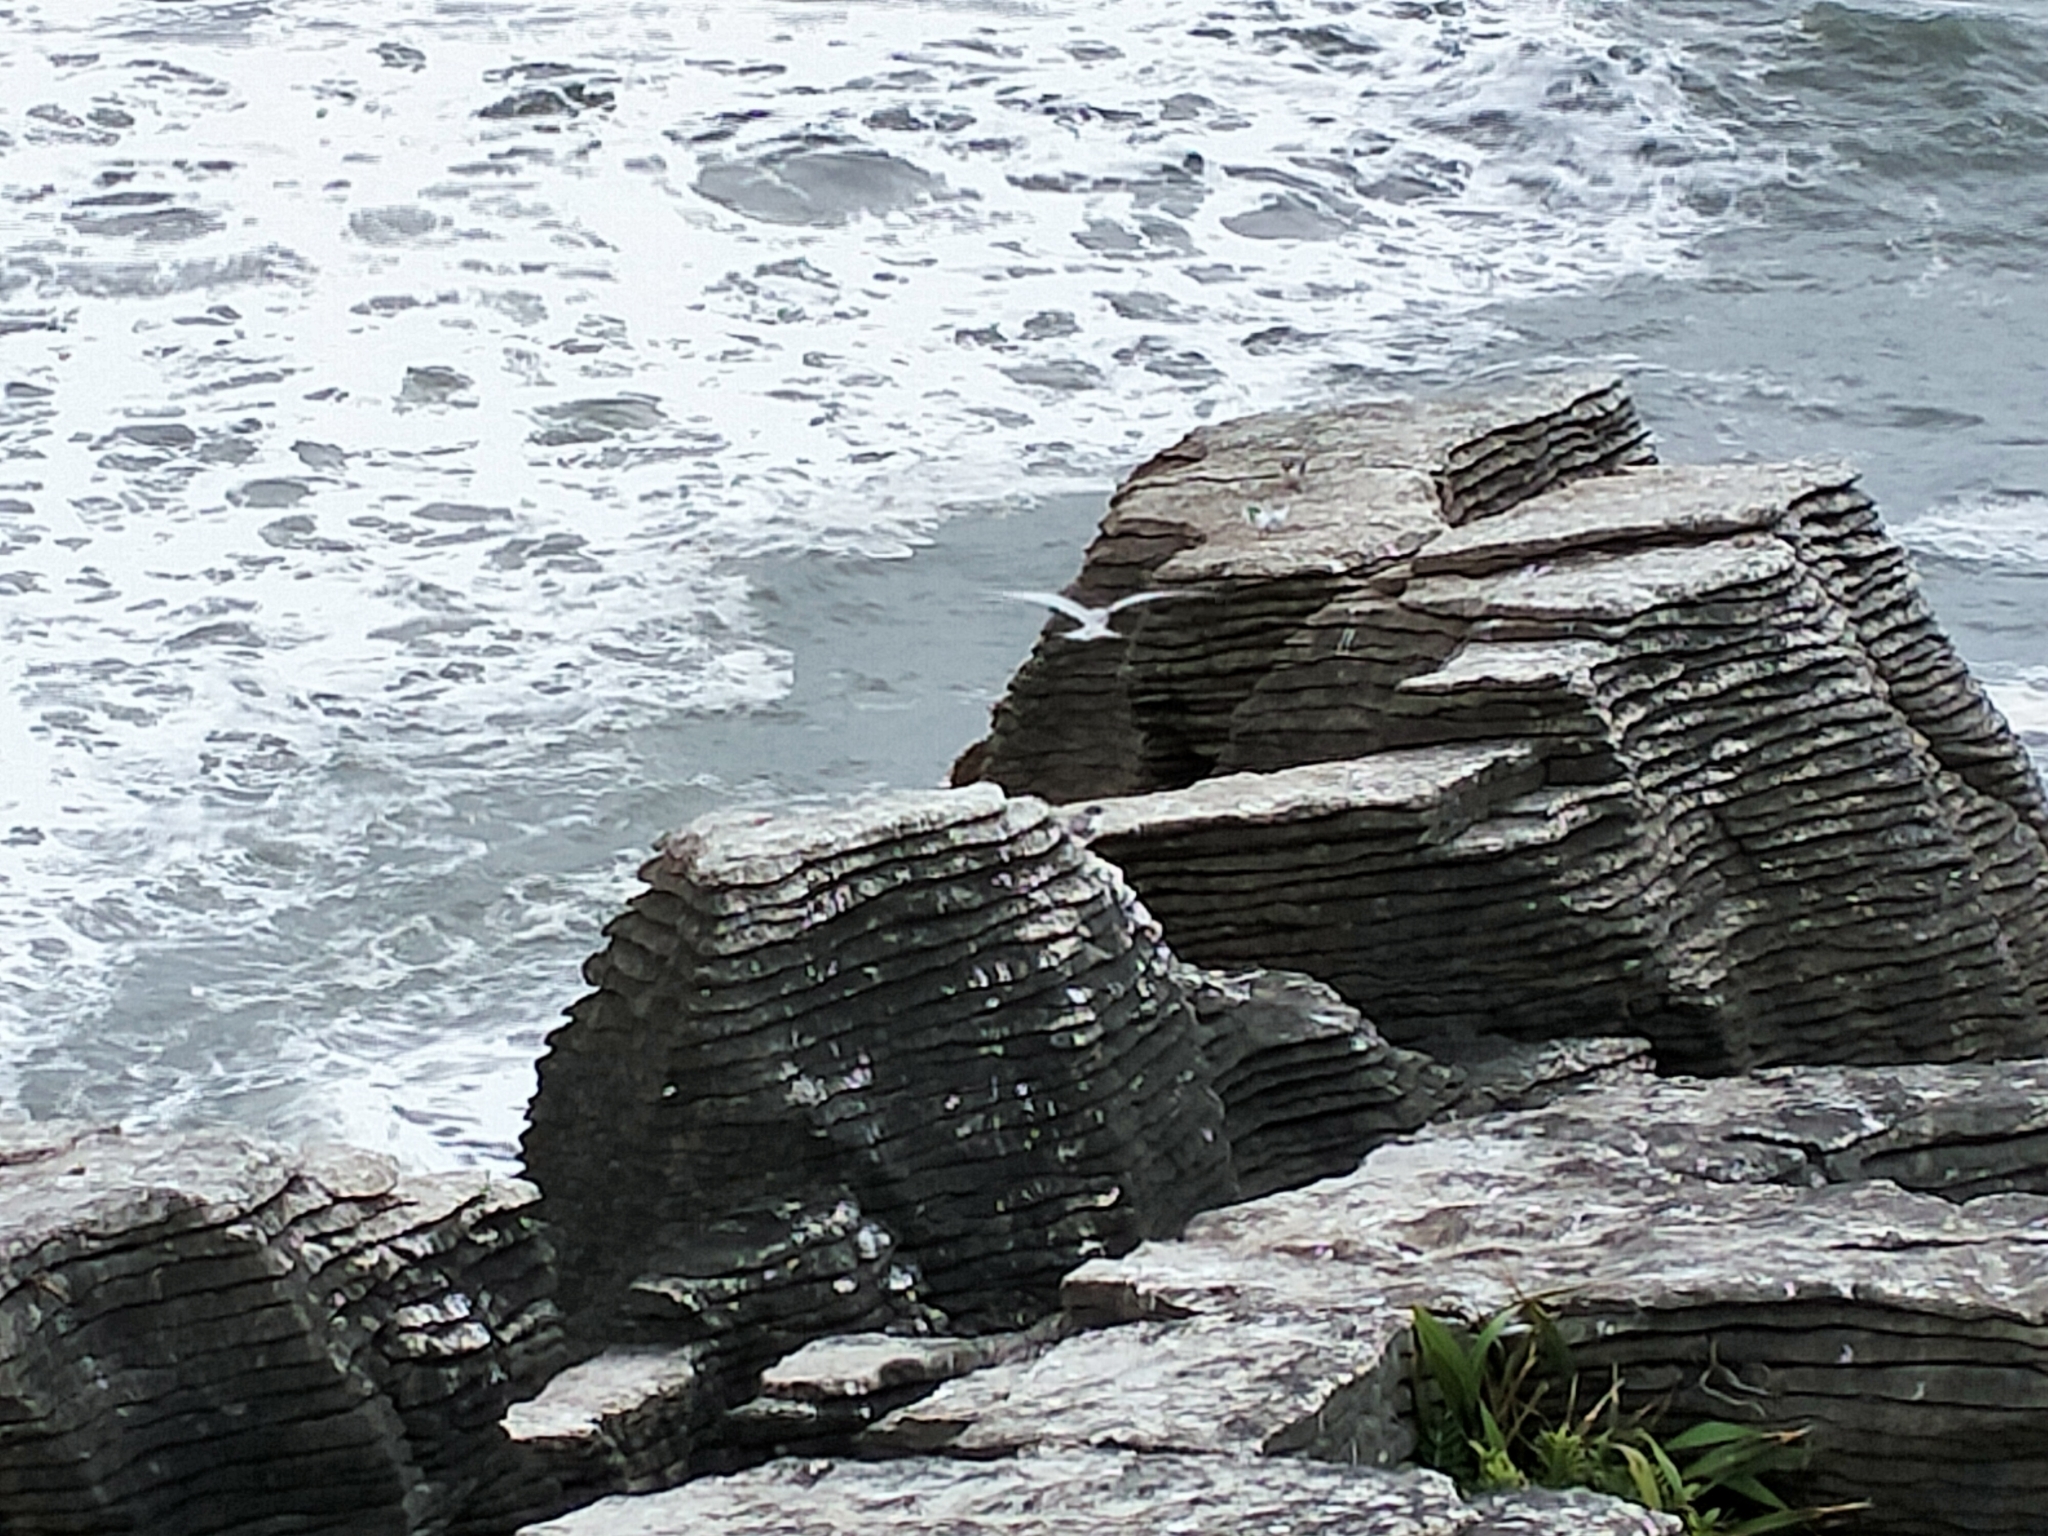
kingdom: Animalia
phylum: Chordata
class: Aves
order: Charadriiformes
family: Laridae
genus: Sterna
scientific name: Sterna striata
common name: White-fronted tern
